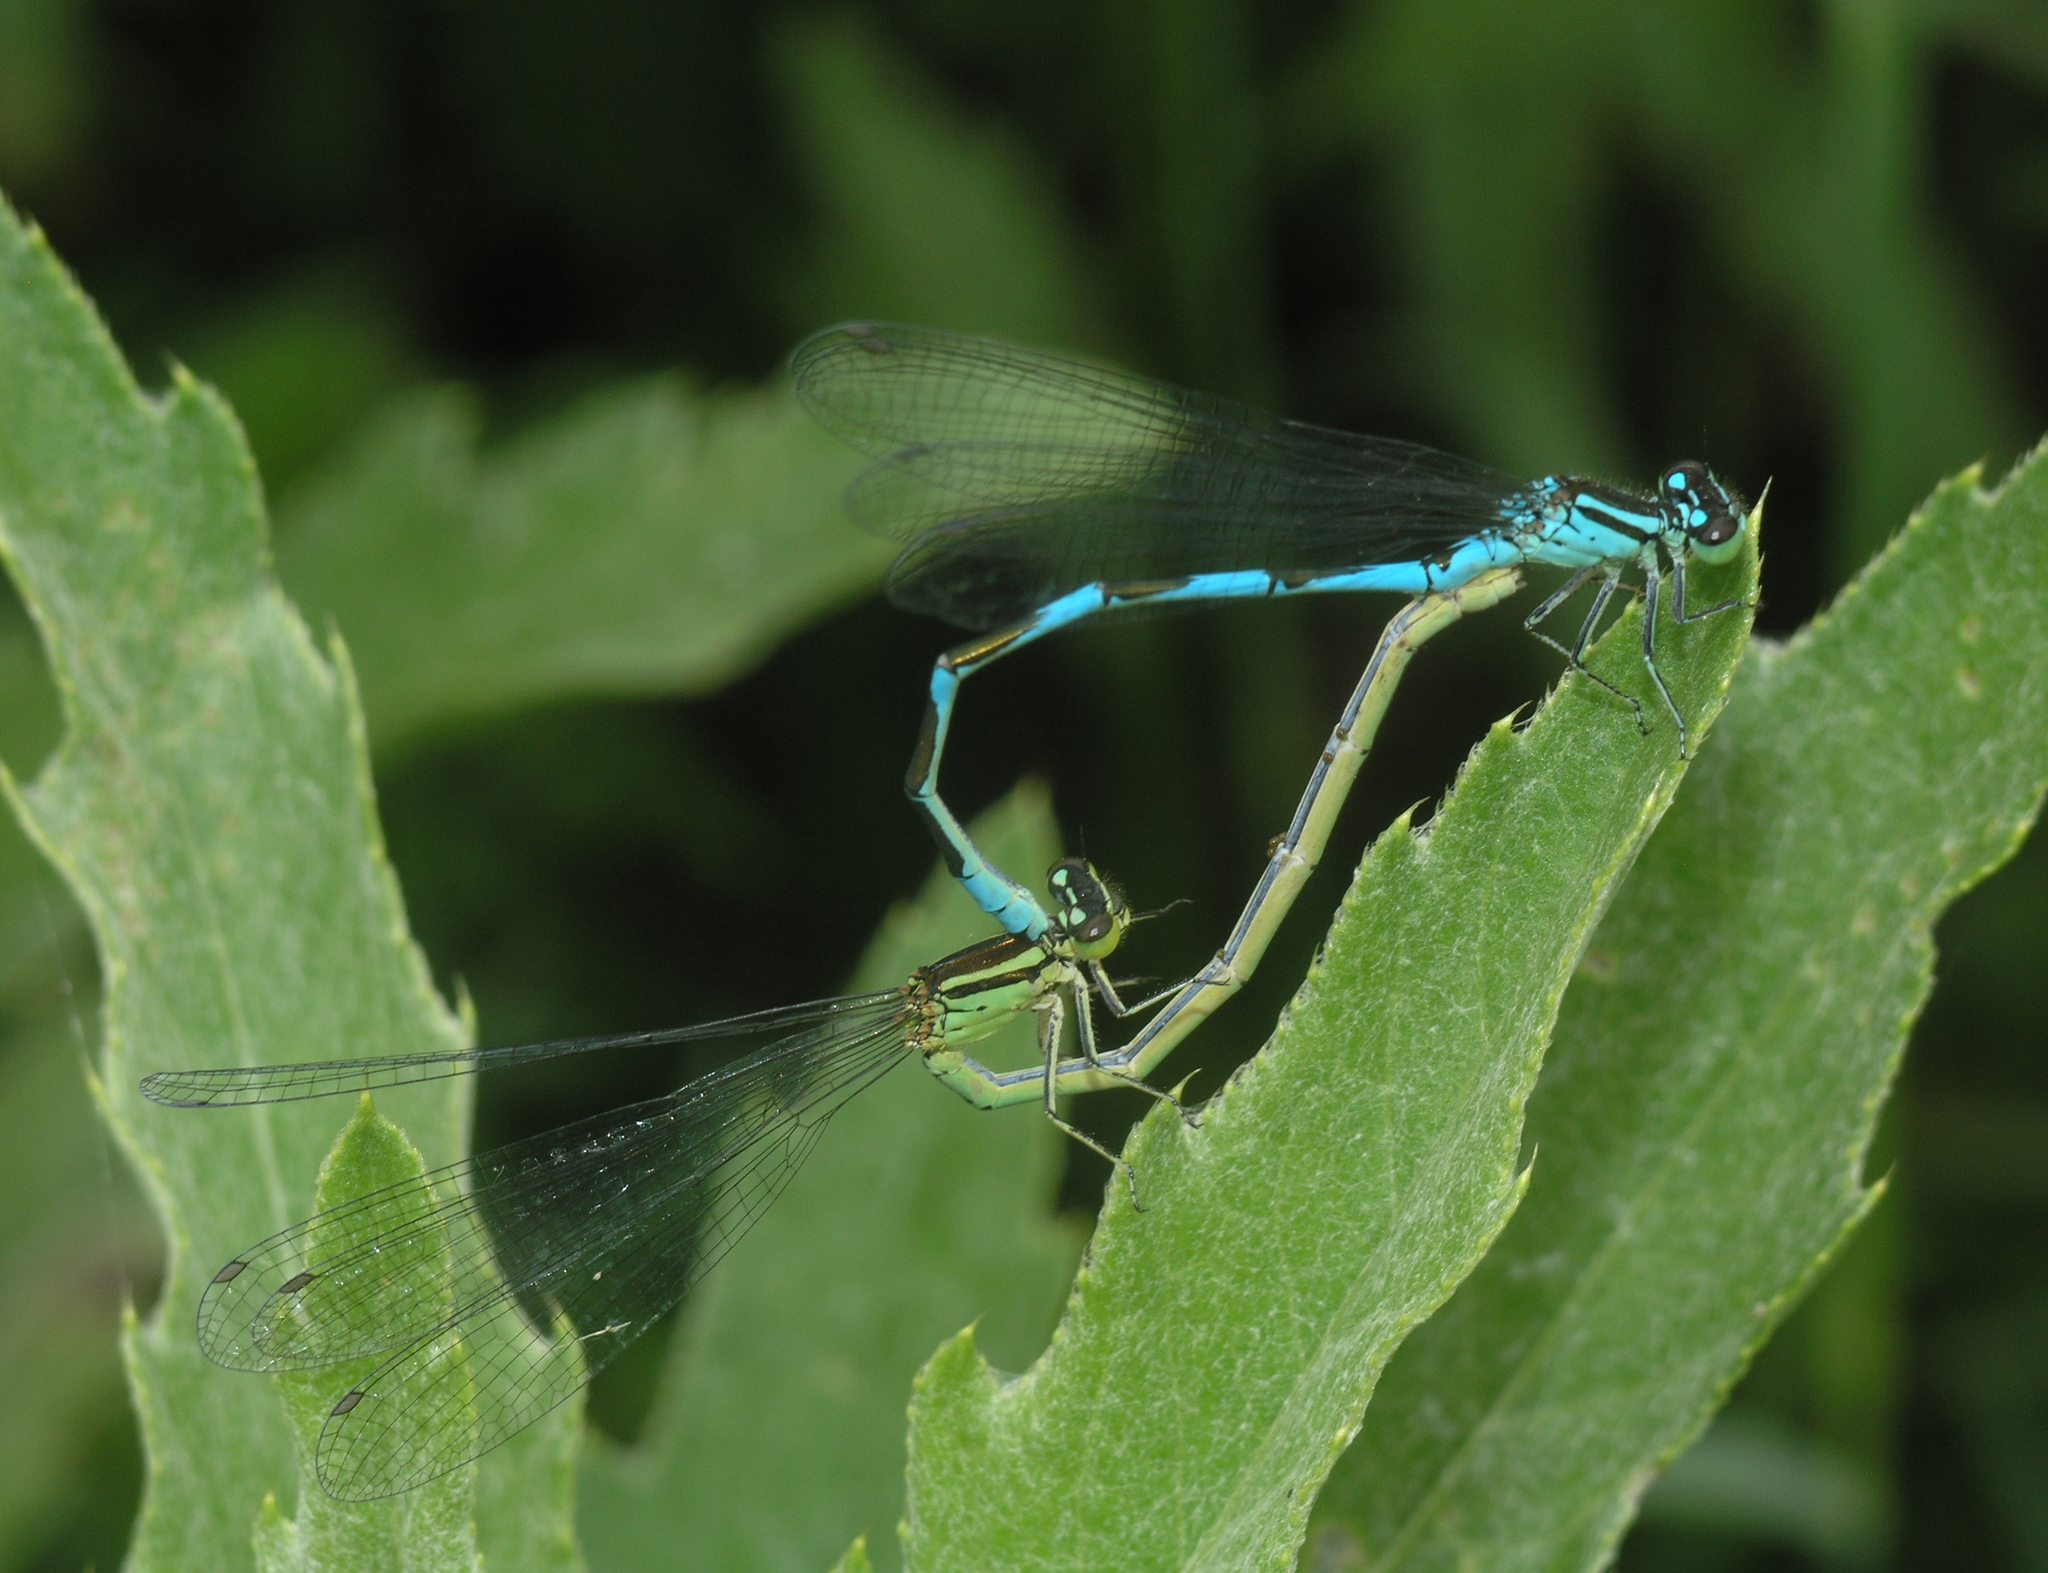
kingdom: Animalia
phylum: Arthropoda
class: Insecta
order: Odonata
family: Coenagrionidae
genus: Coenagrion
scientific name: Coenagrion lanceolatum
